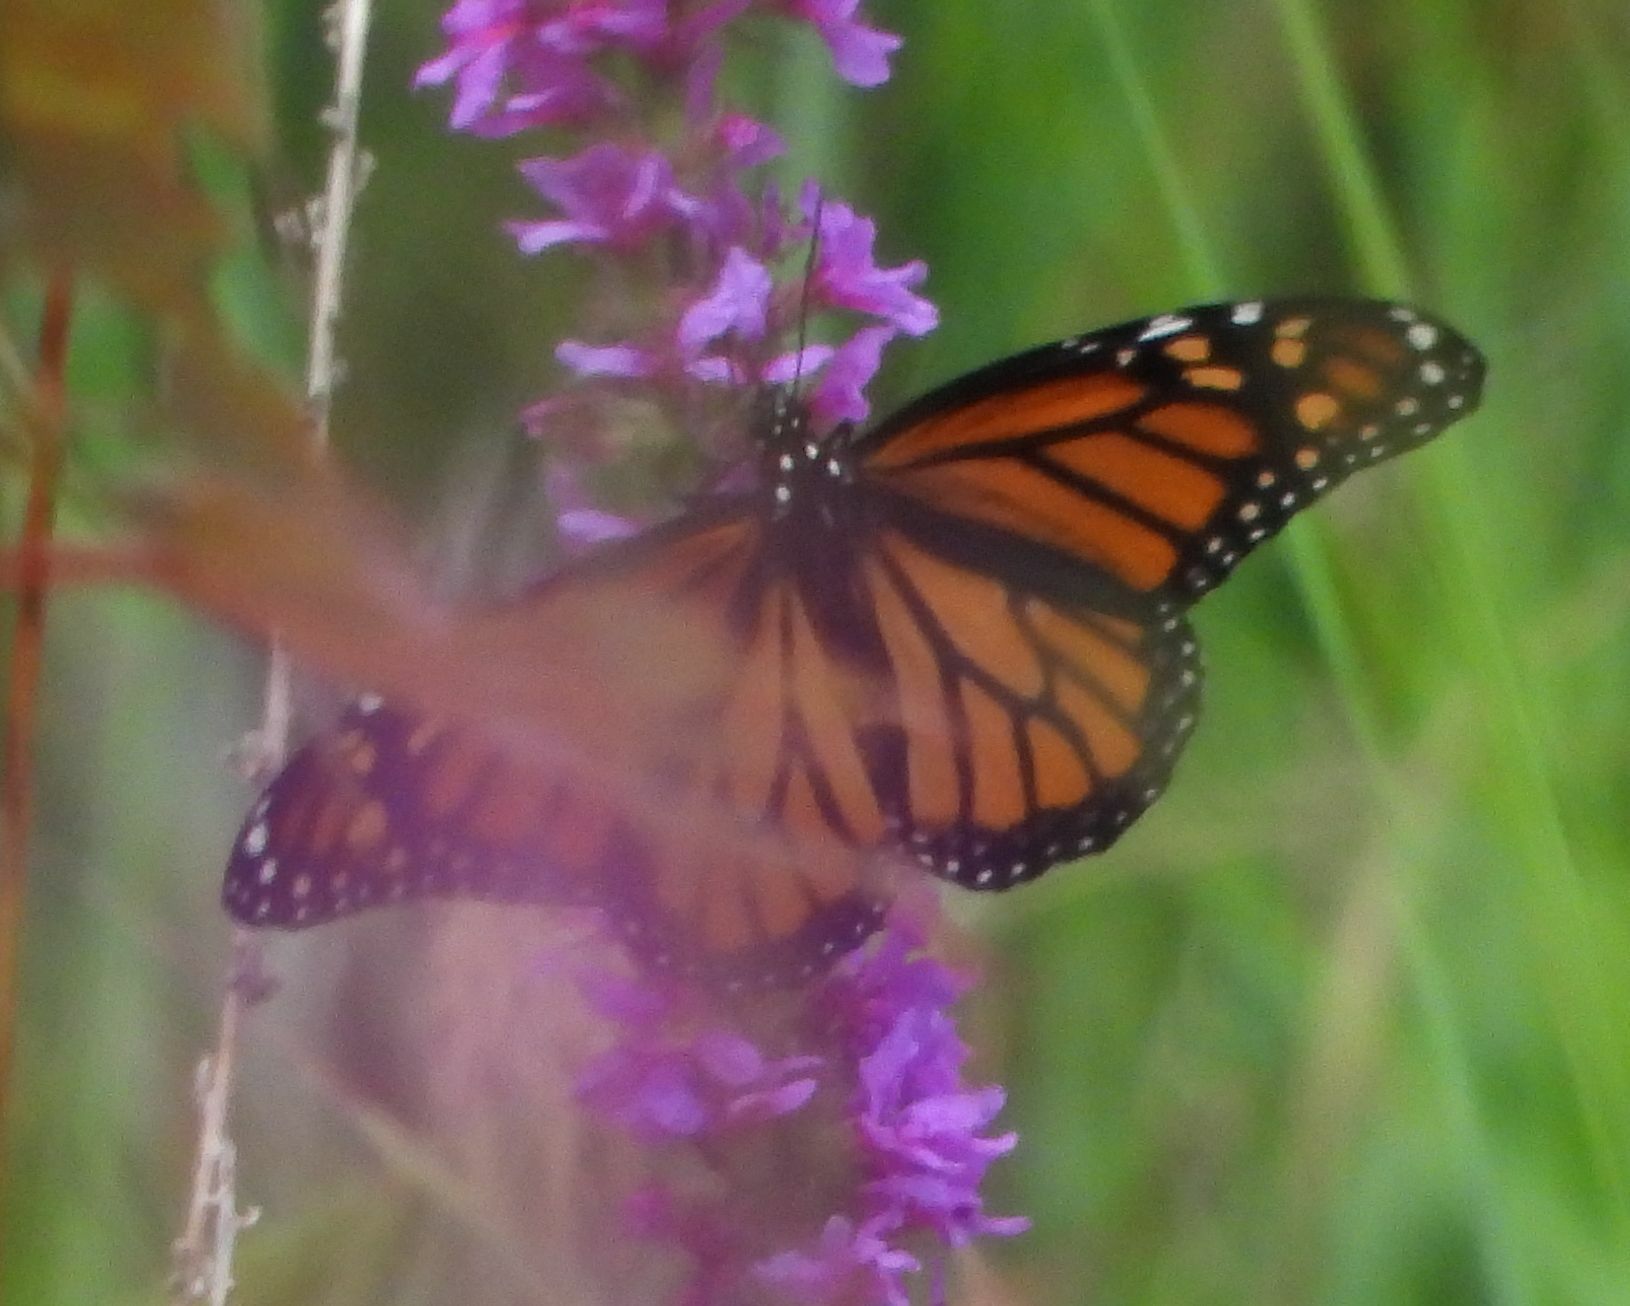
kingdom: Animalia
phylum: Arthropoda
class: Insecta
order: Lepidoptera
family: Nymphalidae
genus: Danaus
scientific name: Danaus plexippus
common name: Monarch
